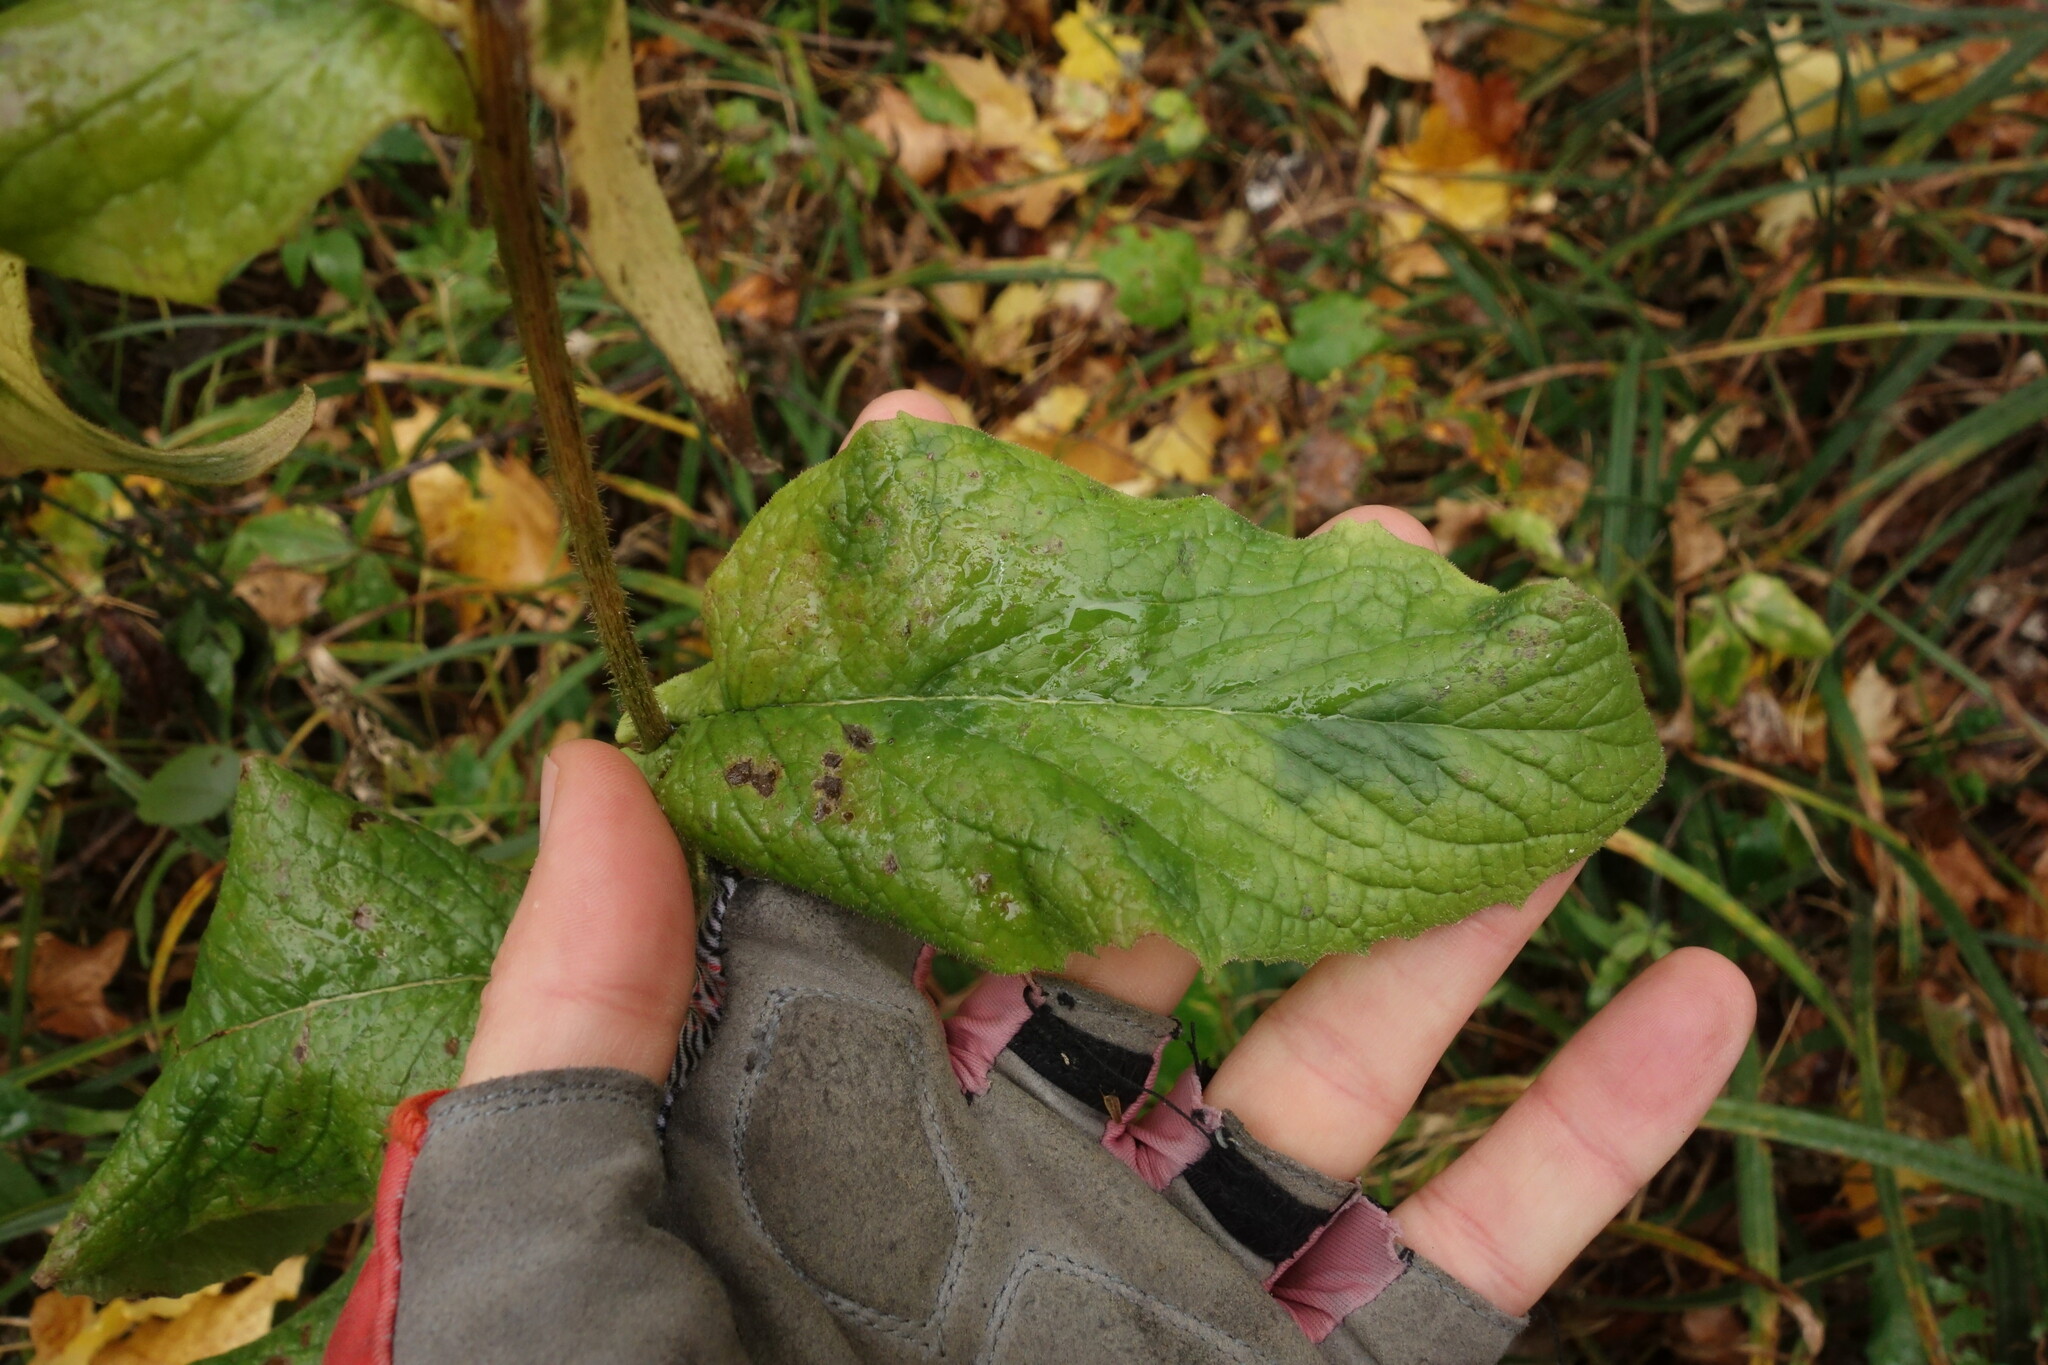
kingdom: Plantae
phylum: Tracheophyta
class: Magnoliopsida
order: Asterales
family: Asteraceae
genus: Crepis
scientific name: Crepis sibirica
